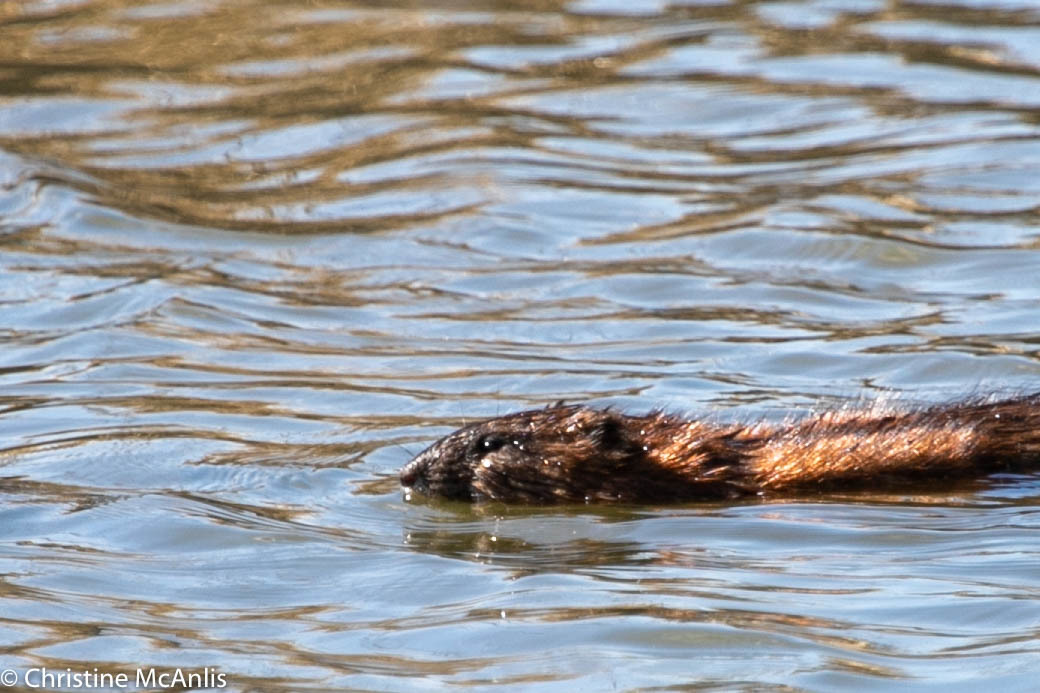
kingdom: Animalia
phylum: Chordata
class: Mammalia
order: Rodentia
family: Cricetidae
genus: Ondatra
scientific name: Ondatra zibethicus
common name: Muskrat
